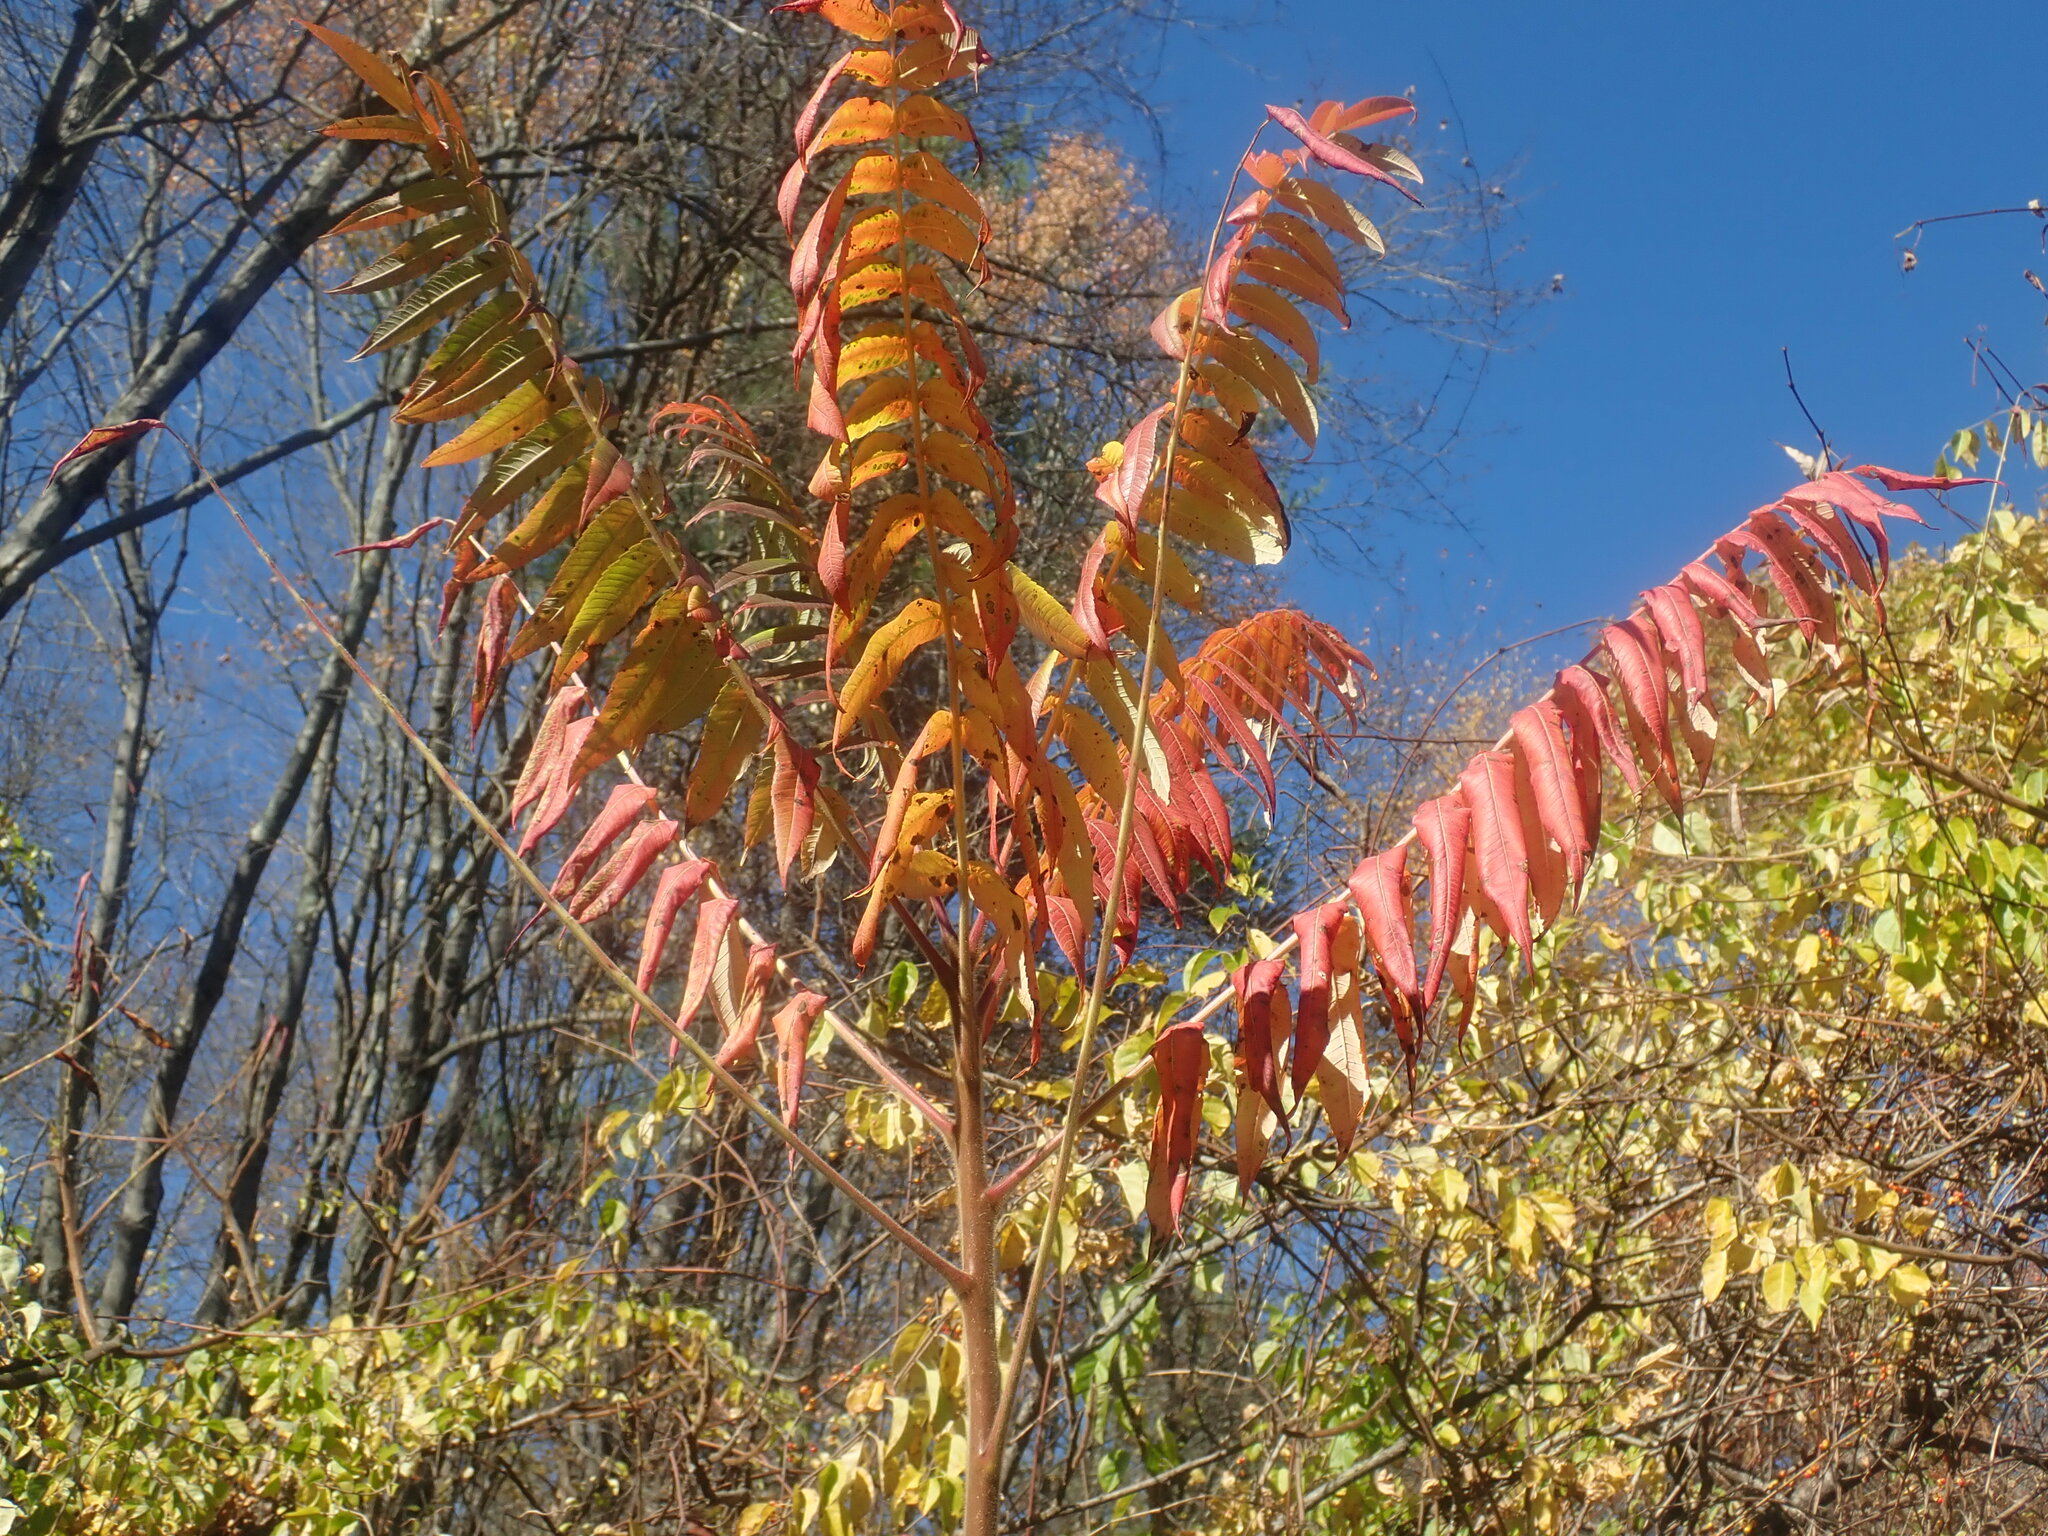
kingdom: Plantae
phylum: Tracheophyta
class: Magnoliopsida
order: Sapindales
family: Anacardiaceae
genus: Rhus
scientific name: Rhus typhina
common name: Staghorn sumac
